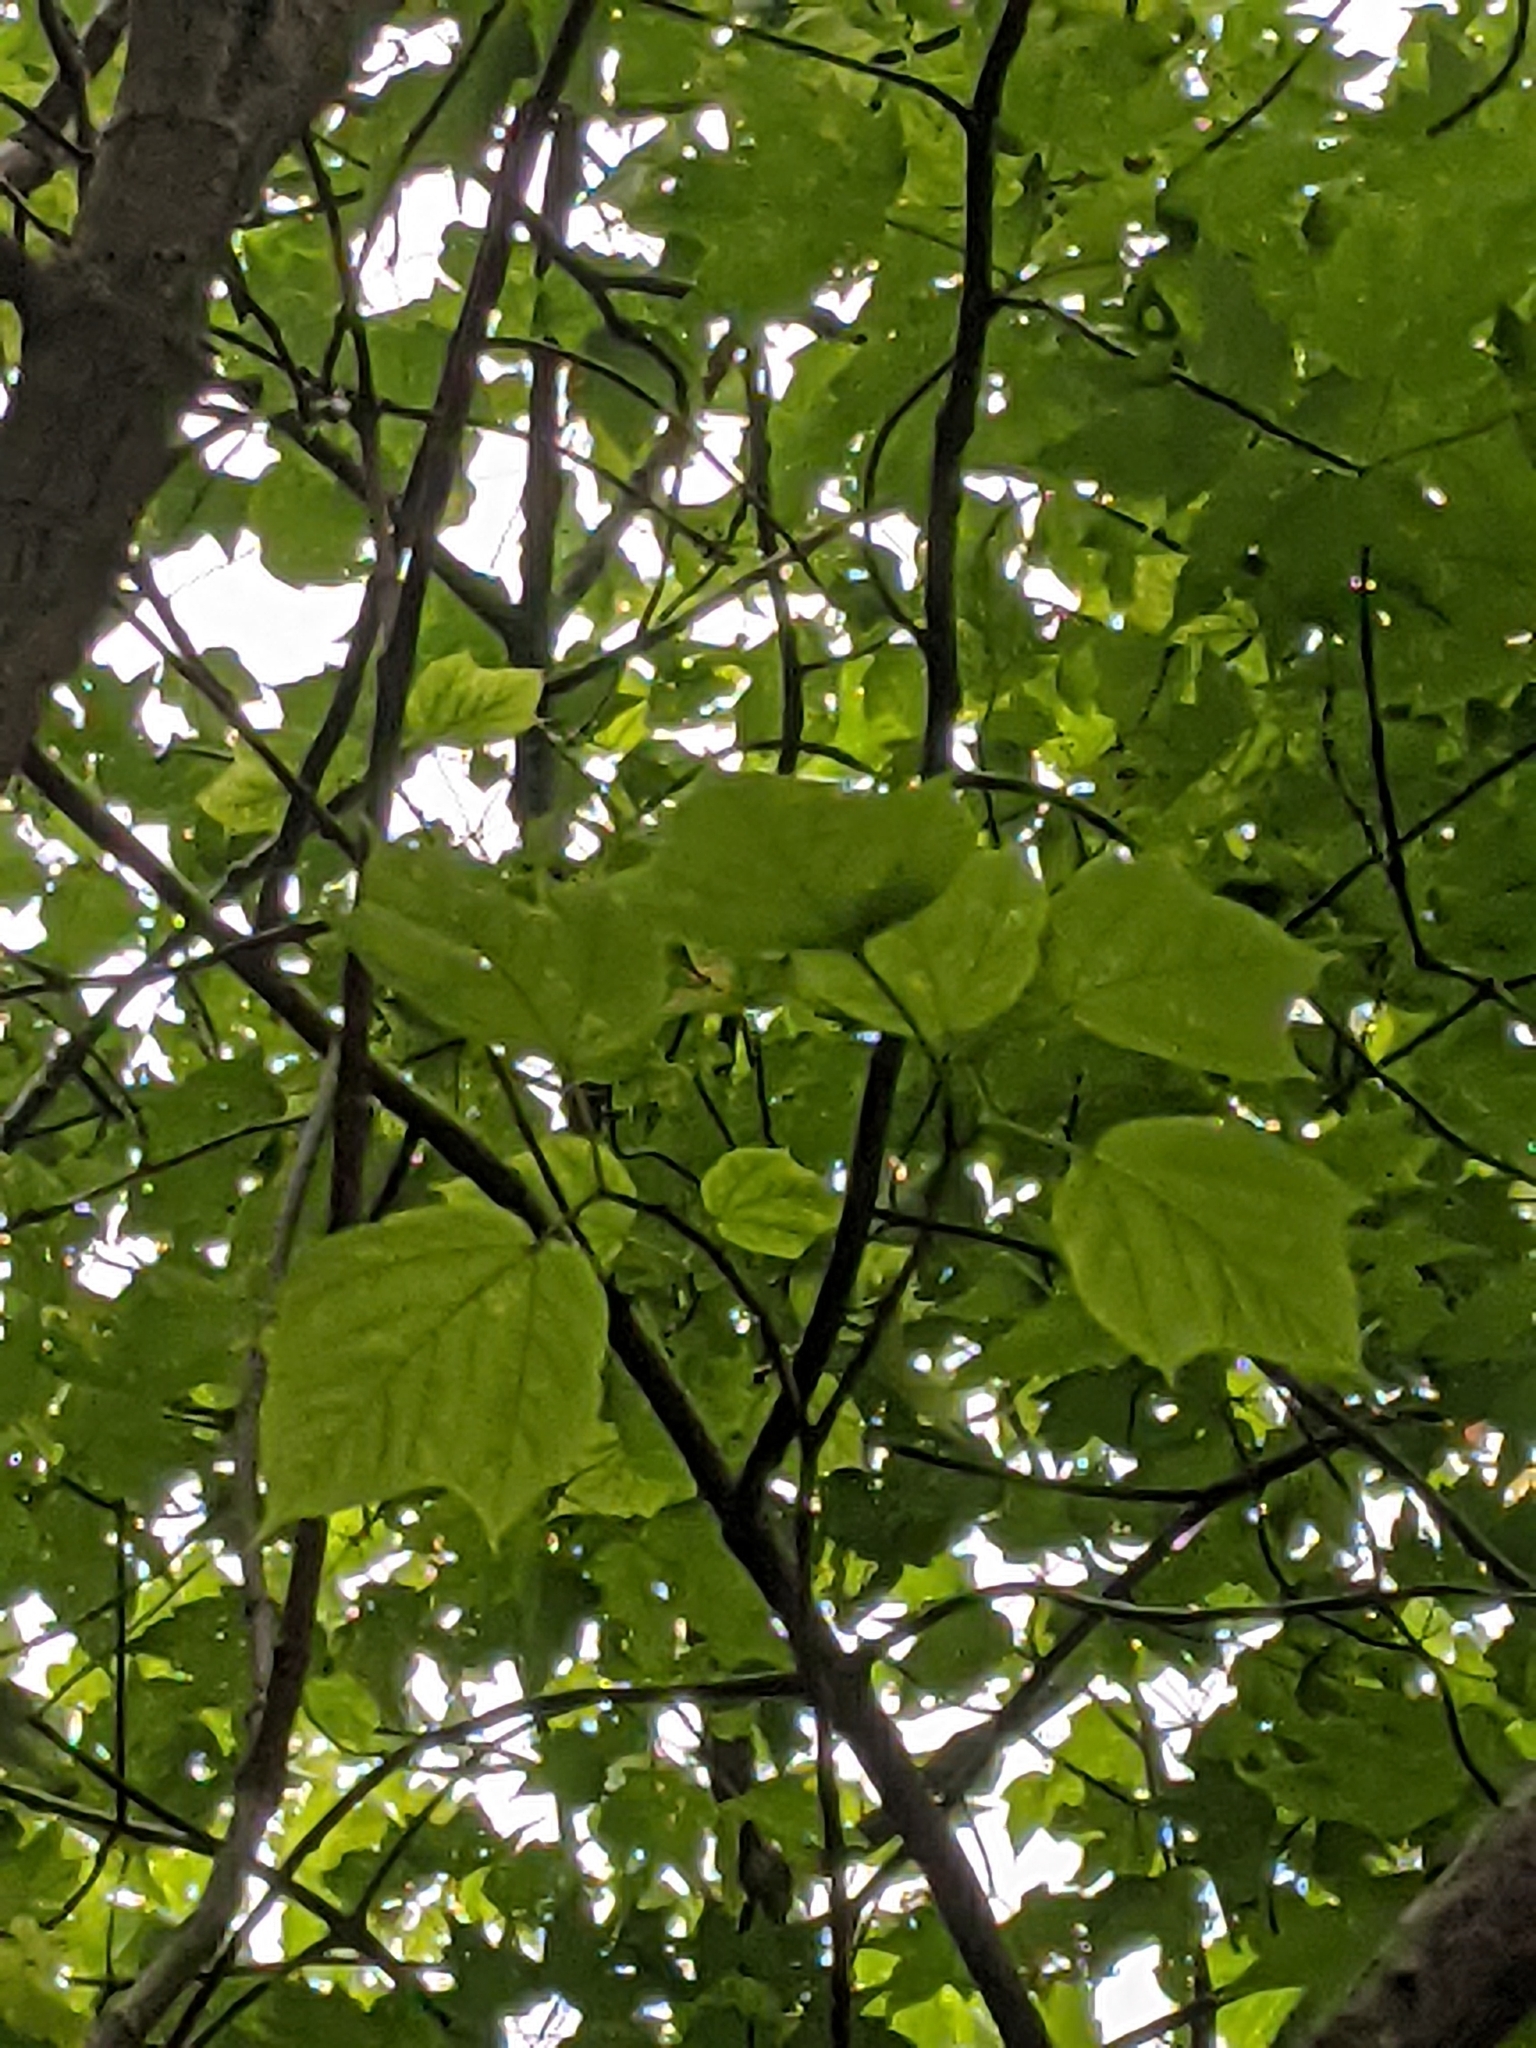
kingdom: Plantae
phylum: Tracheophyta
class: Magnoliopsida
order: Sapindales
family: Sapindaceae
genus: Acer
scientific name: Acer pensylvanicum
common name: Moosewood
